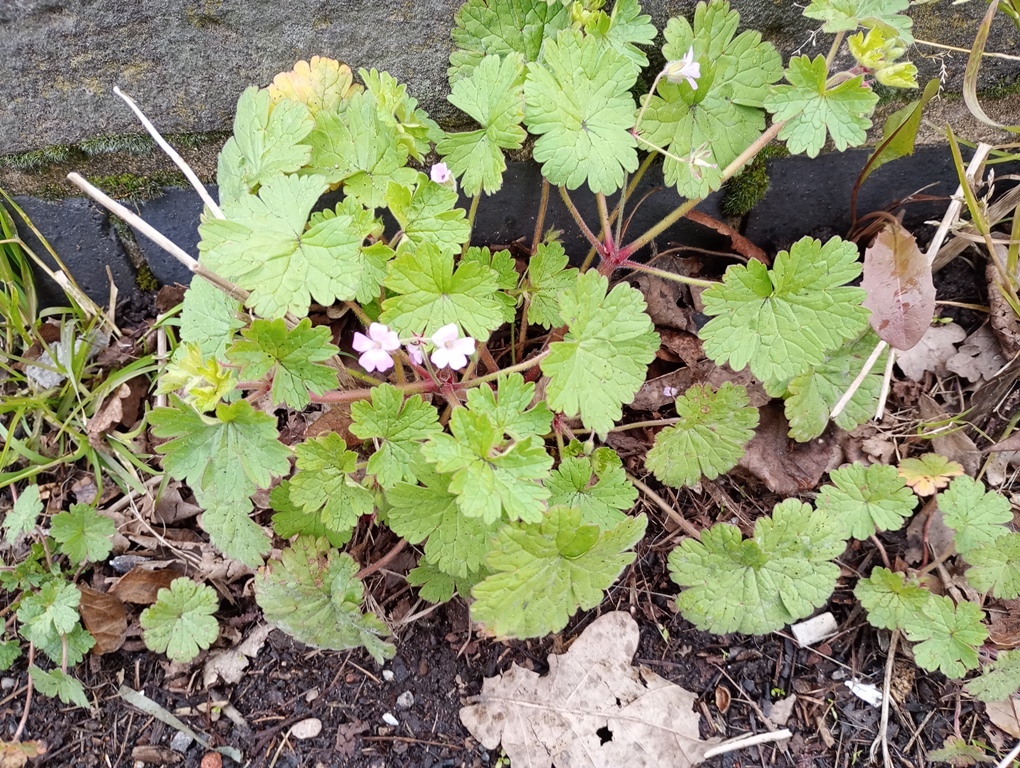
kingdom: Plantae
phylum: Tracheophyta
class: Magnoliopsida
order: Geraniales
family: Geraniaceae
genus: Geranium
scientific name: Geranium rotundifolium
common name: Round-leaved crane's-bill
